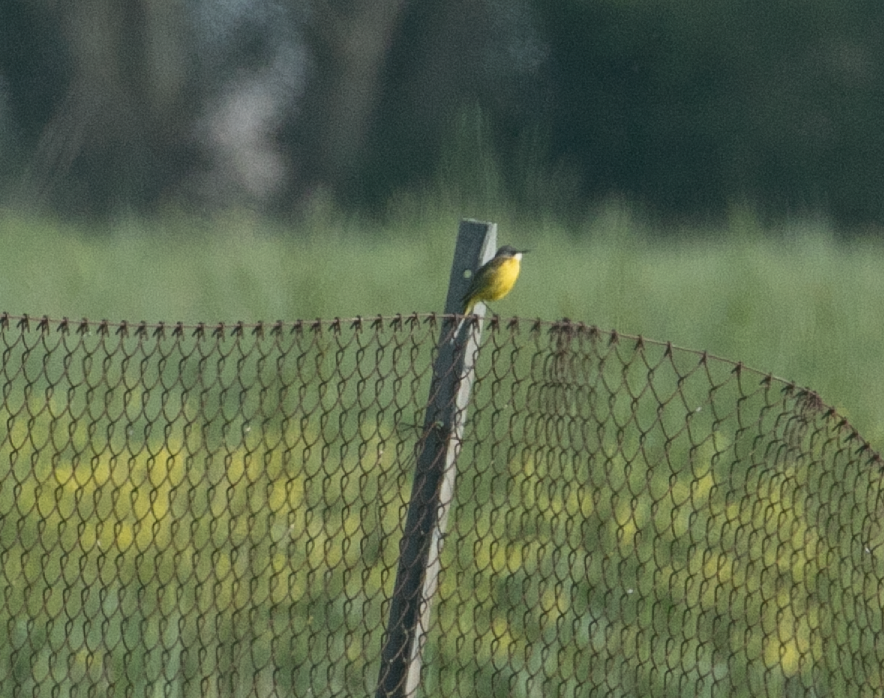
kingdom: Animalia
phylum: Chordata
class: Aves
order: Passeriformes
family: Motacillidae
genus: Motacilla
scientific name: Motacilla flava
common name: Western yellow wagtail
